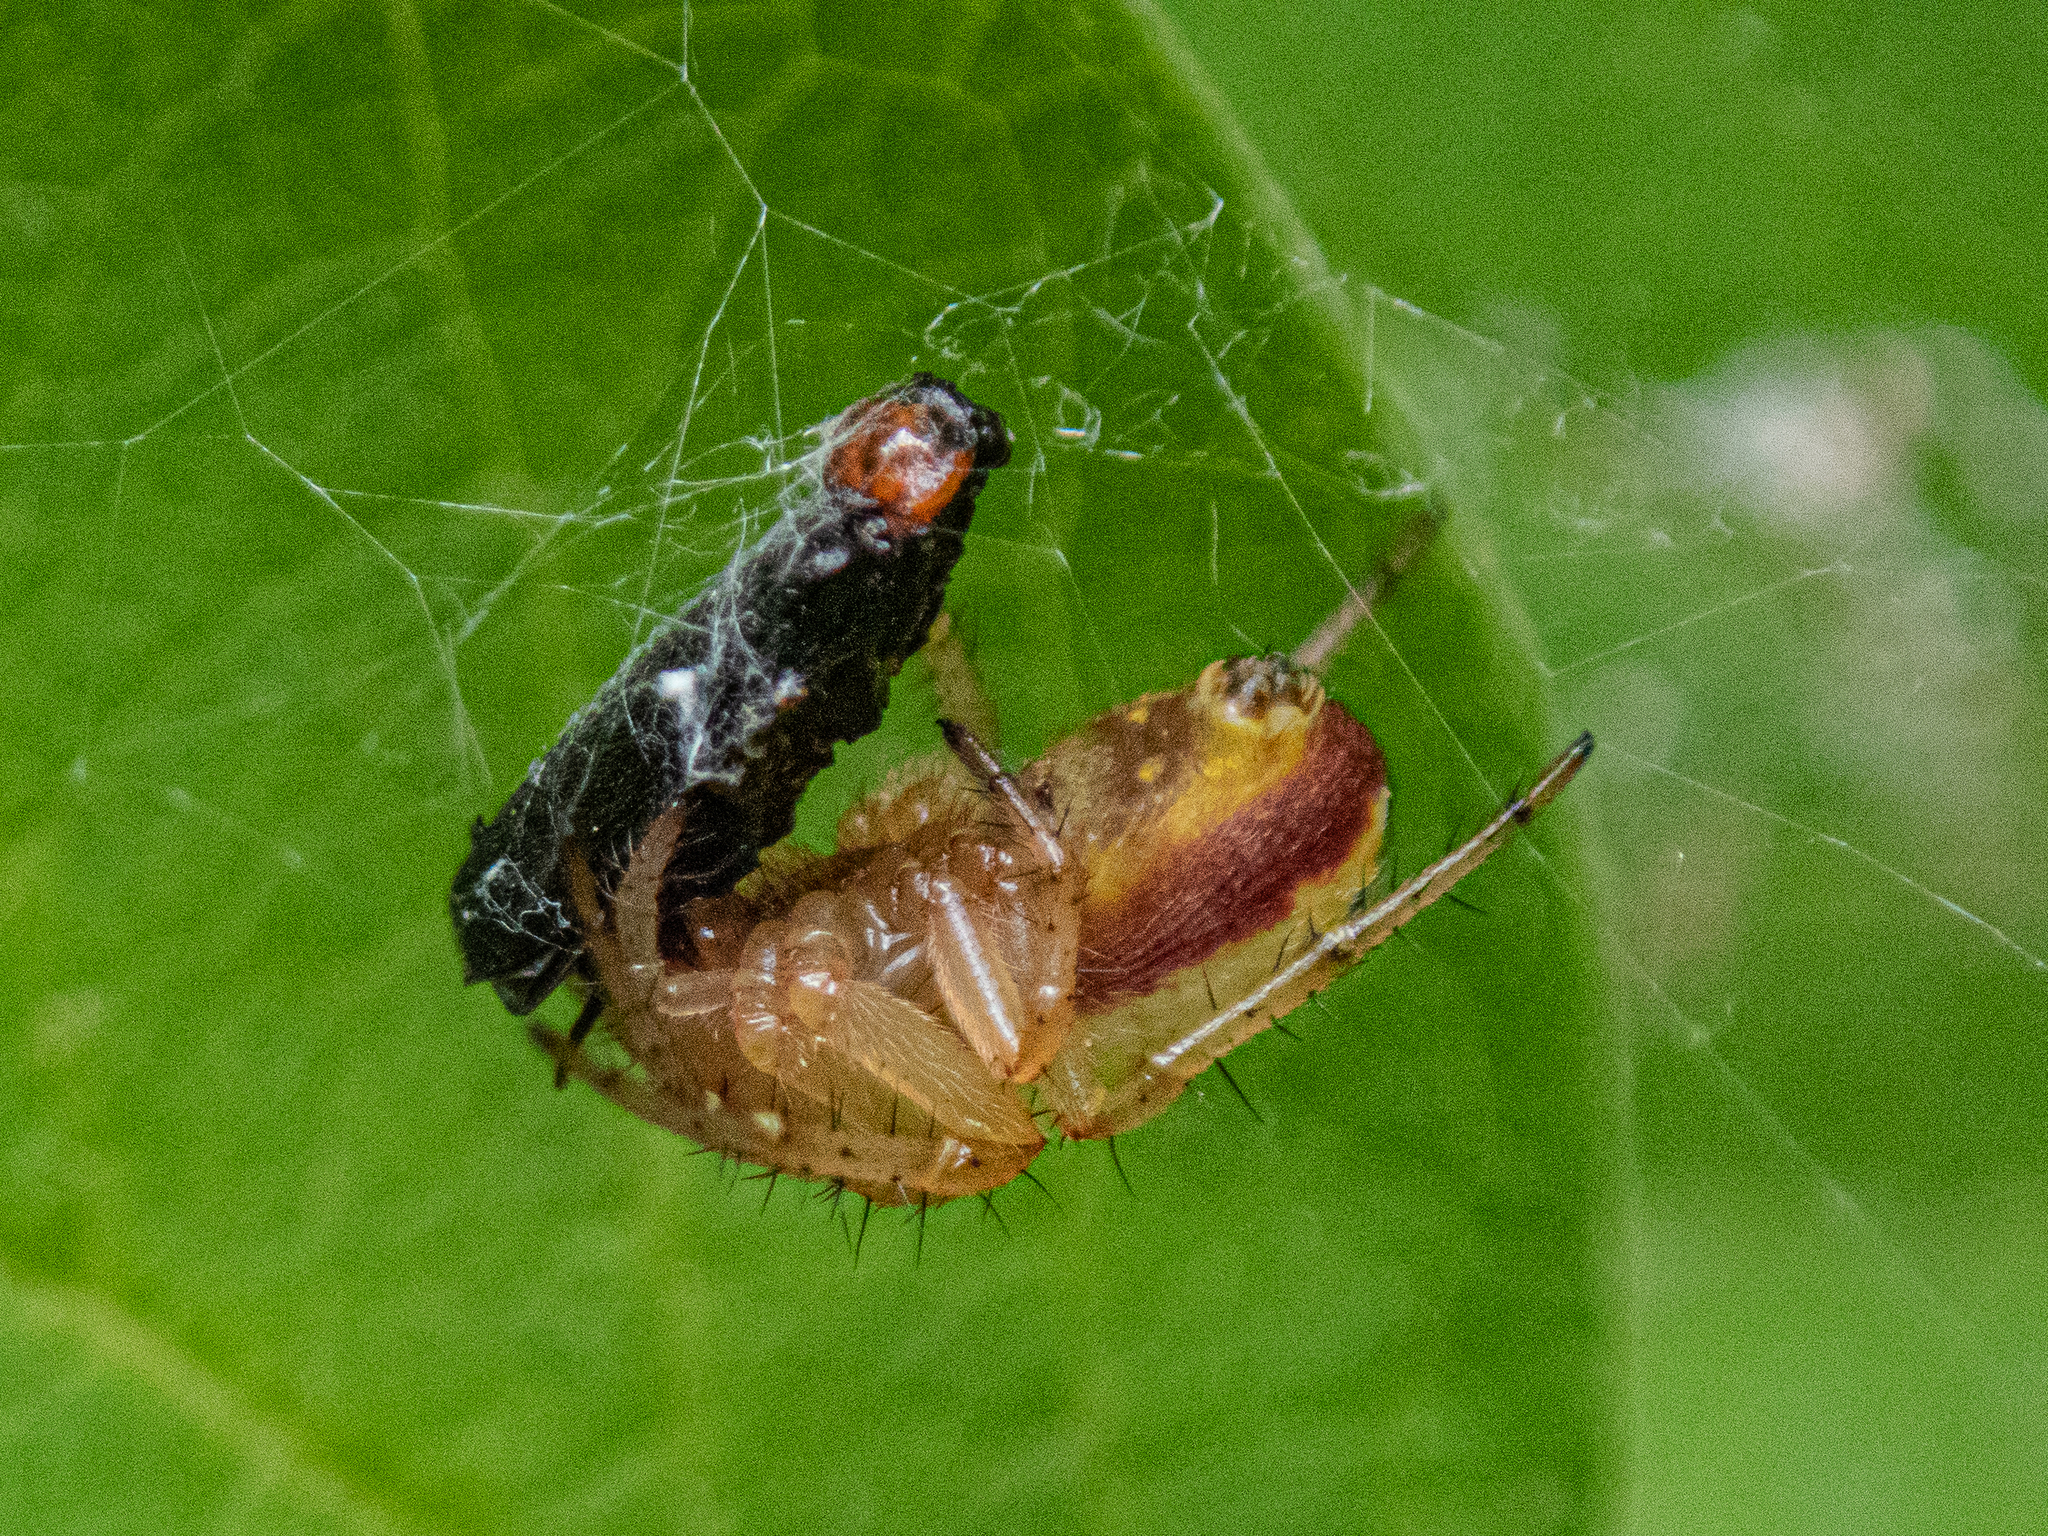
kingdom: Animalia
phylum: Arthropoda
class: Arachnida
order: Araneae
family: Araneidae
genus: Araniella
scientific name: Araniella displicata
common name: Sixspotted orb weaver
